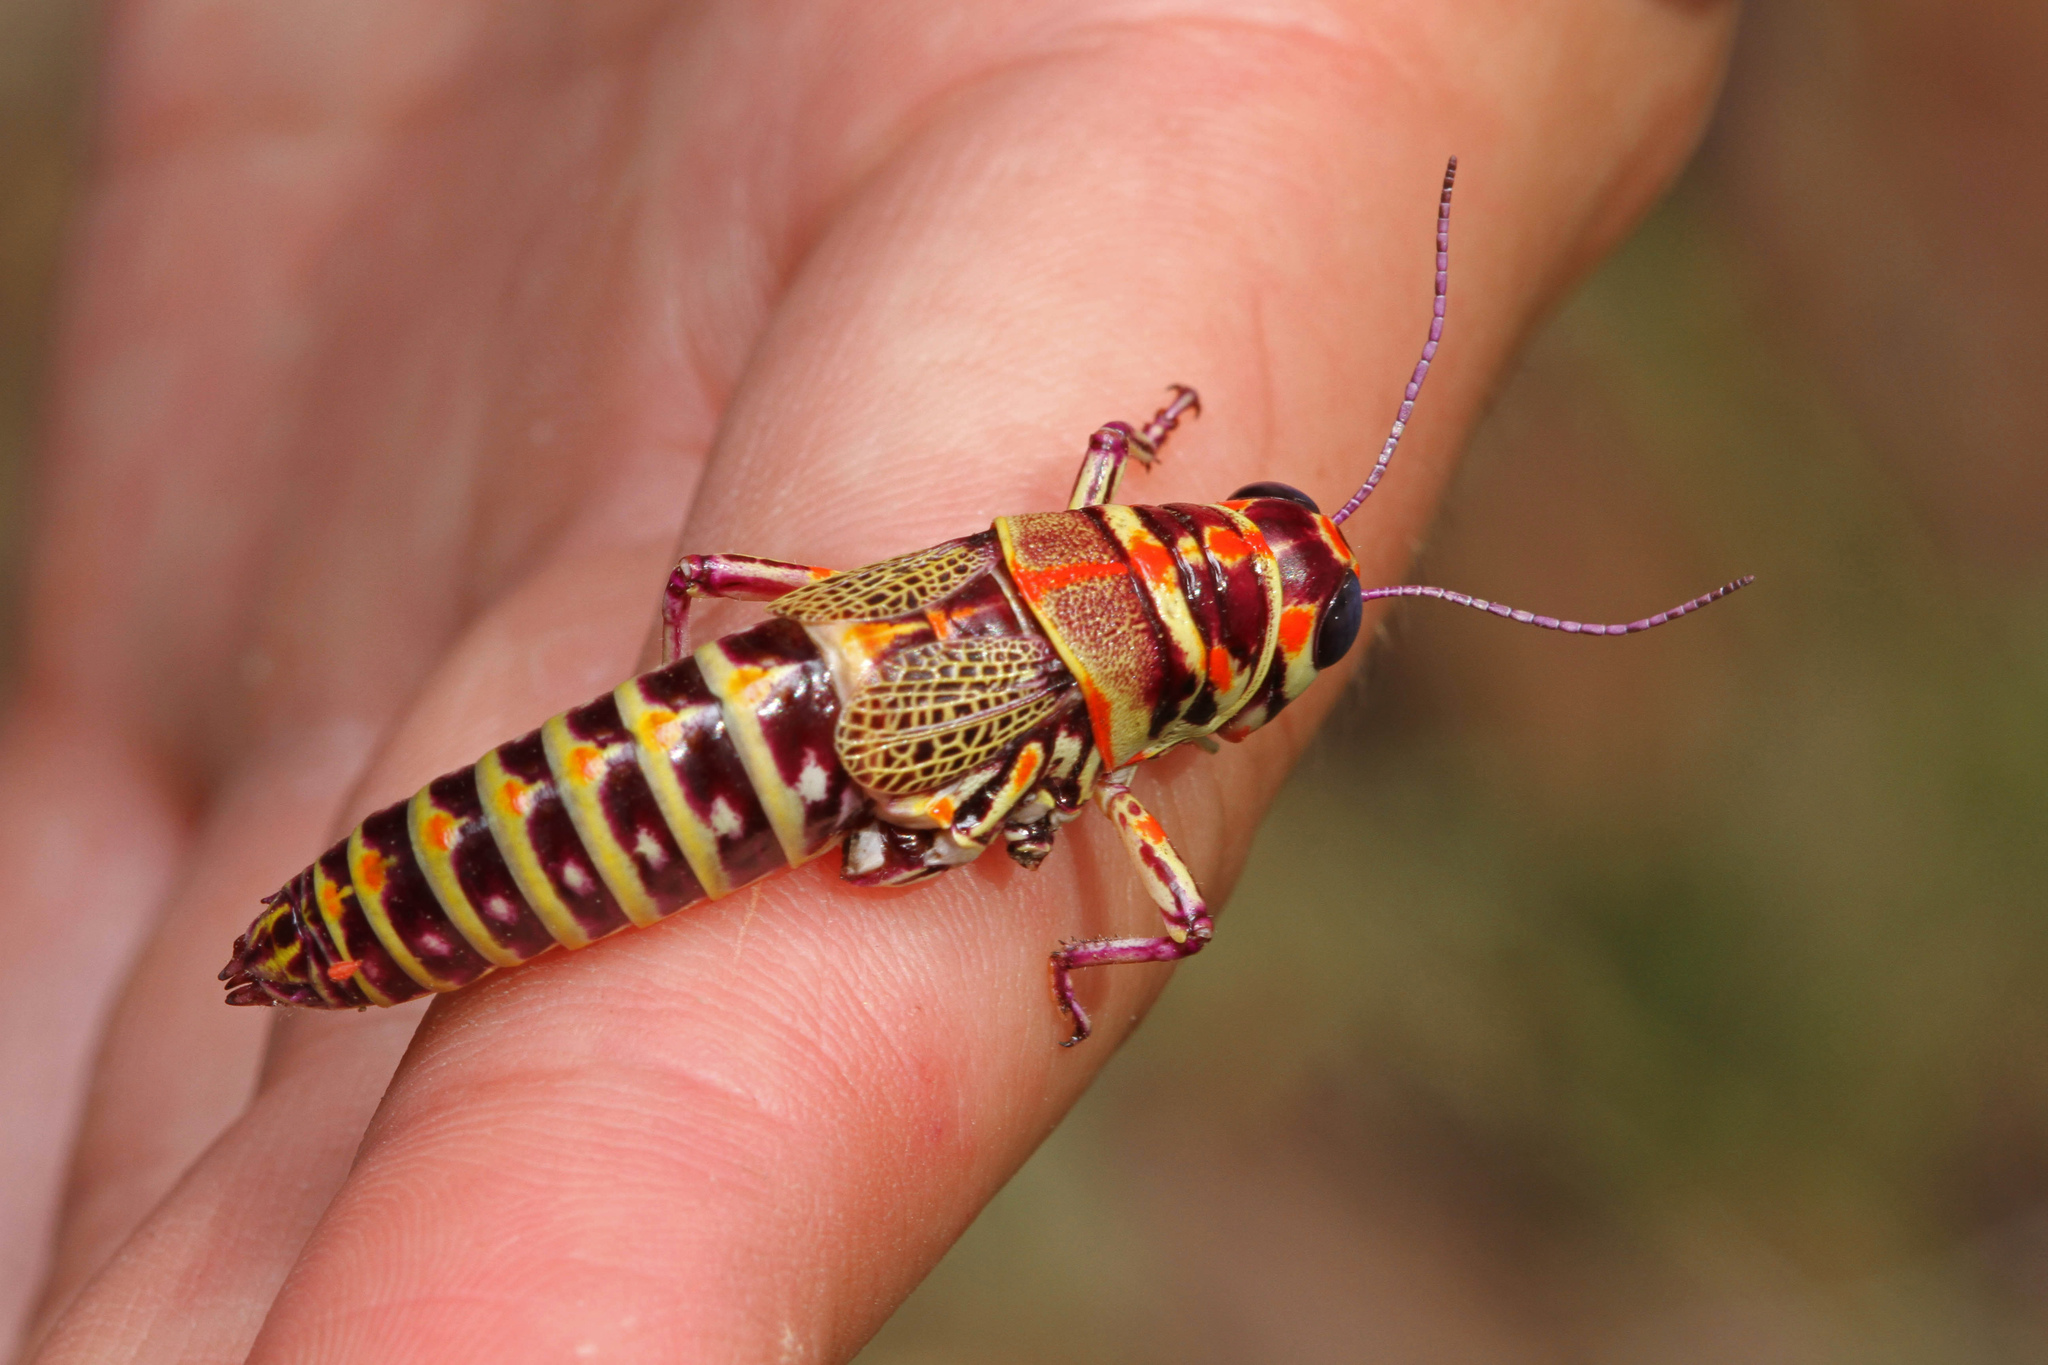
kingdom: Animalia
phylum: Arthropoda
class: Insecta
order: Orthoptera
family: Acrididae
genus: Dactylotum
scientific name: Dactylotum bicolor
